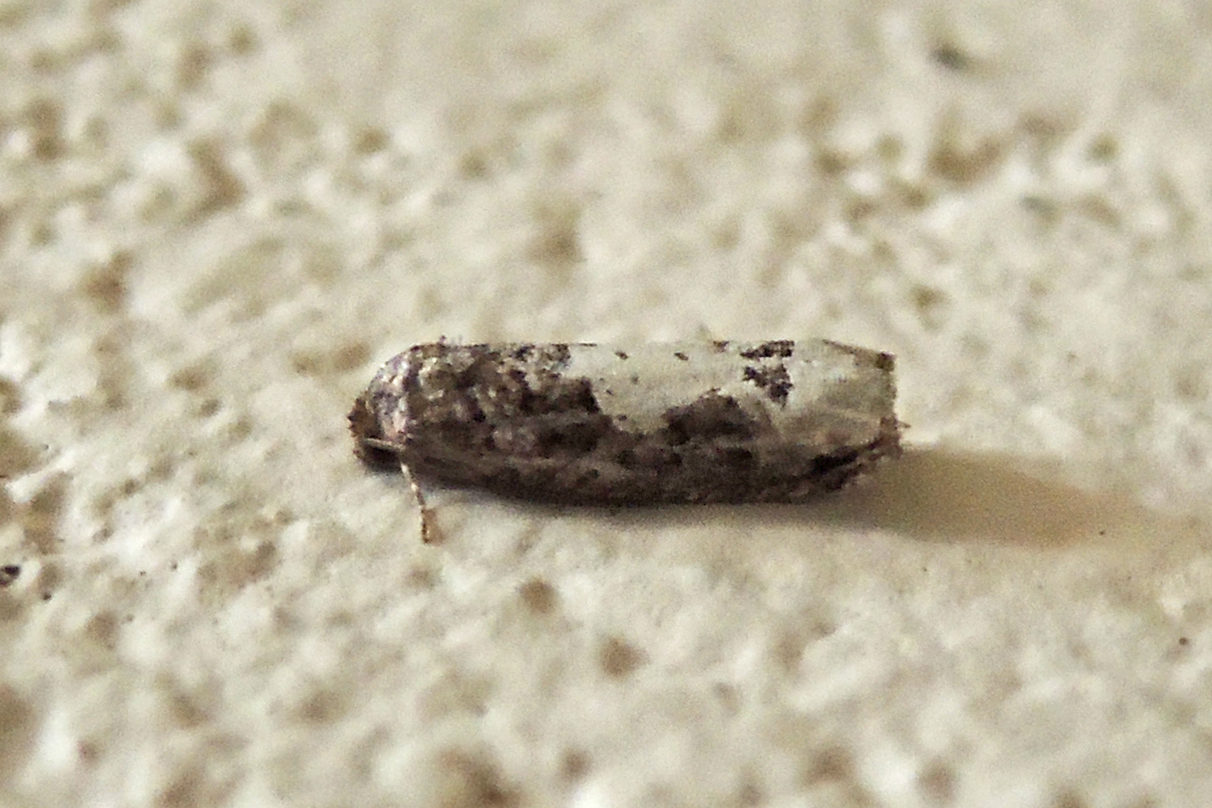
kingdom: Animalia
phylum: Arthropoda
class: Insecta
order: Lepidoptera
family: Tortricidae
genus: Epiblema
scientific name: Epiblema dorsisuffusana
